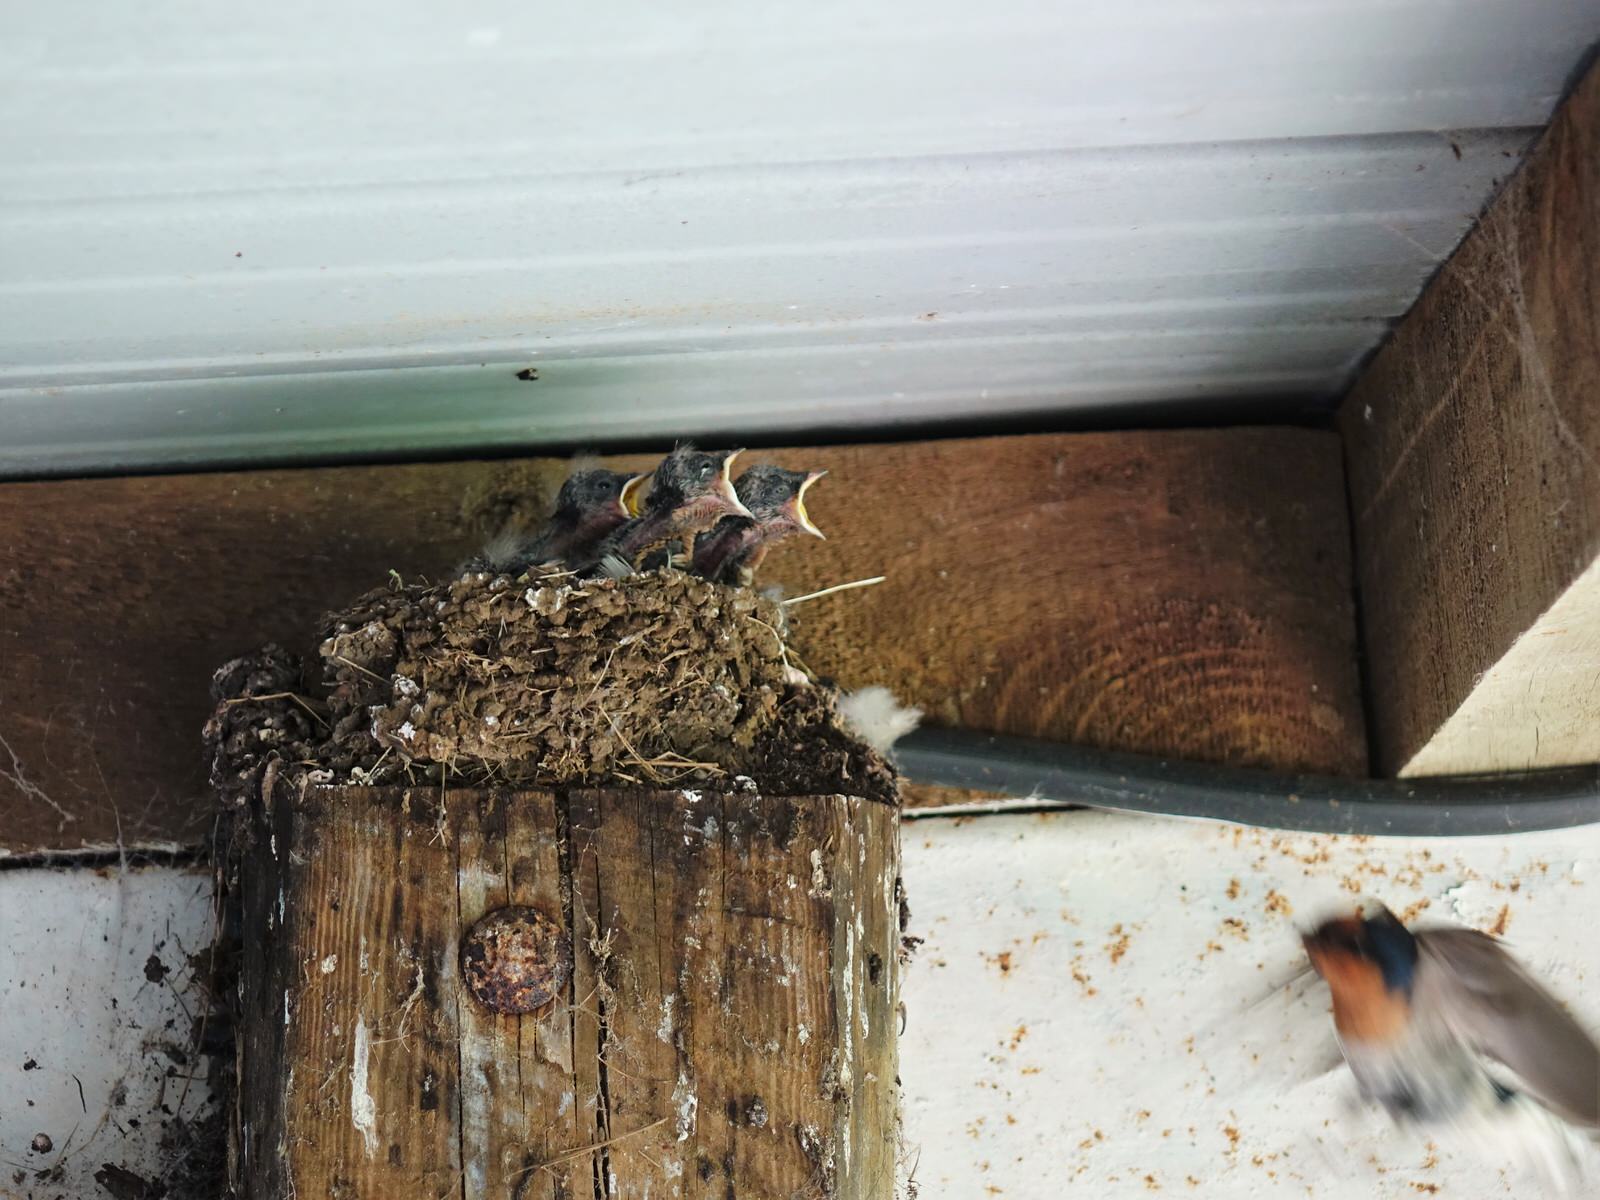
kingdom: Animalia
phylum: Chordata
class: Aves
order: Passeriformes
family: Hirundinidae
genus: Hirundo
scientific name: Hirundo neoxena
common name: Welcome swallow
